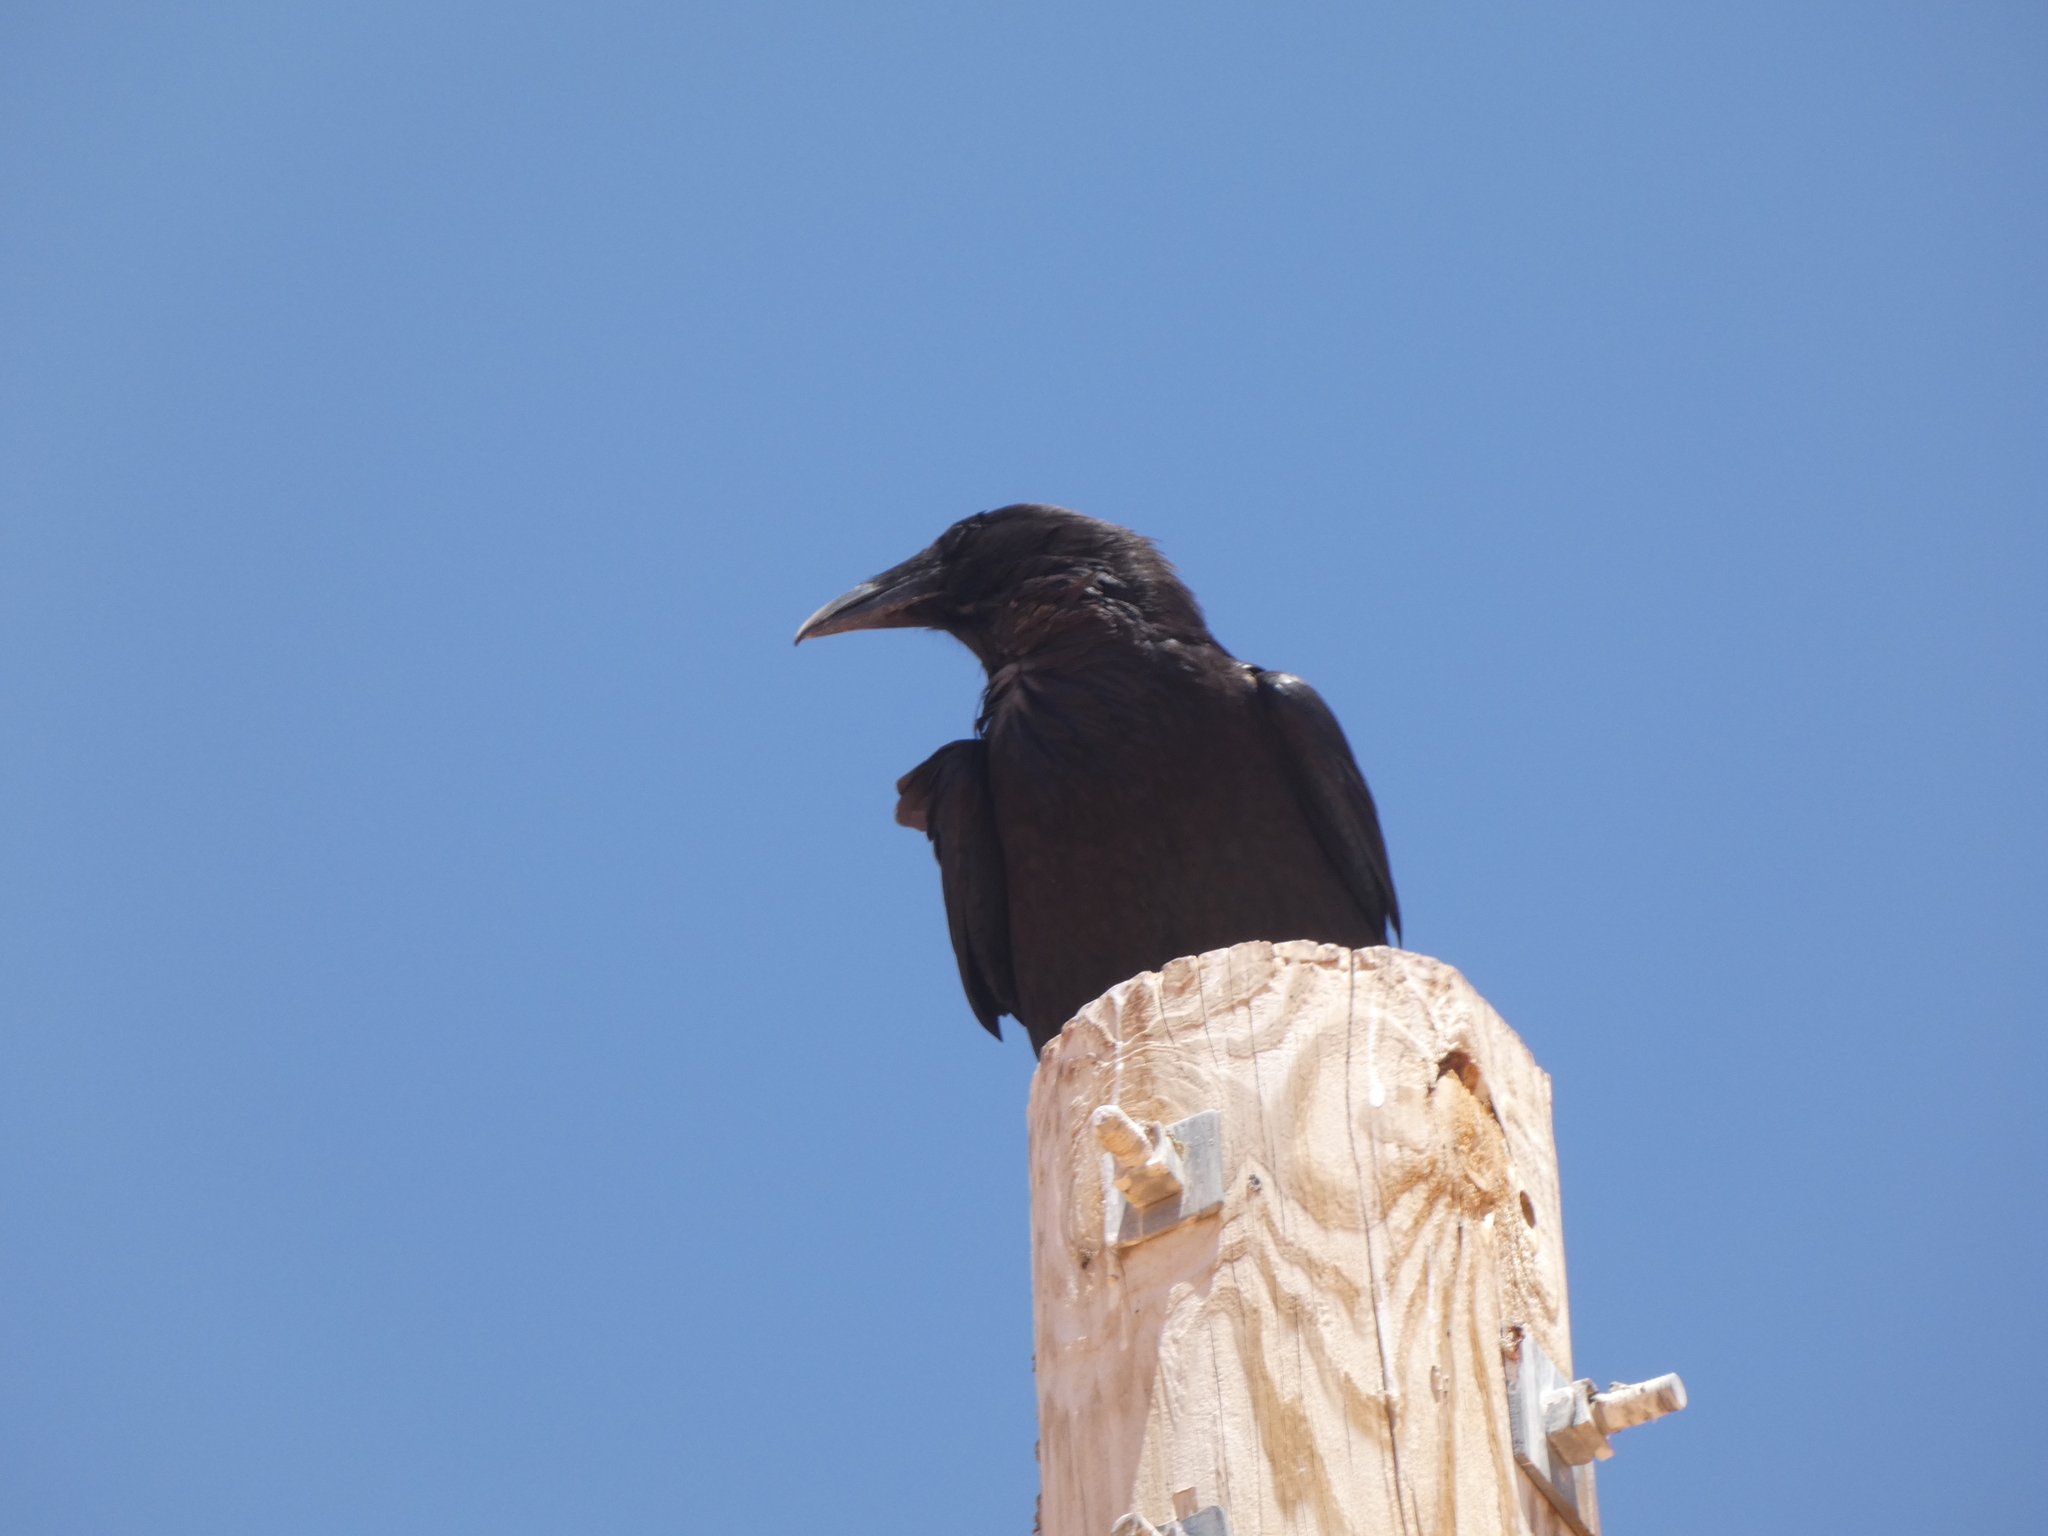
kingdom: Animalia
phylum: Chordata
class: Aves
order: Passeriformes
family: Corvidae
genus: Corvus
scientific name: Corvus corax
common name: Common raven
